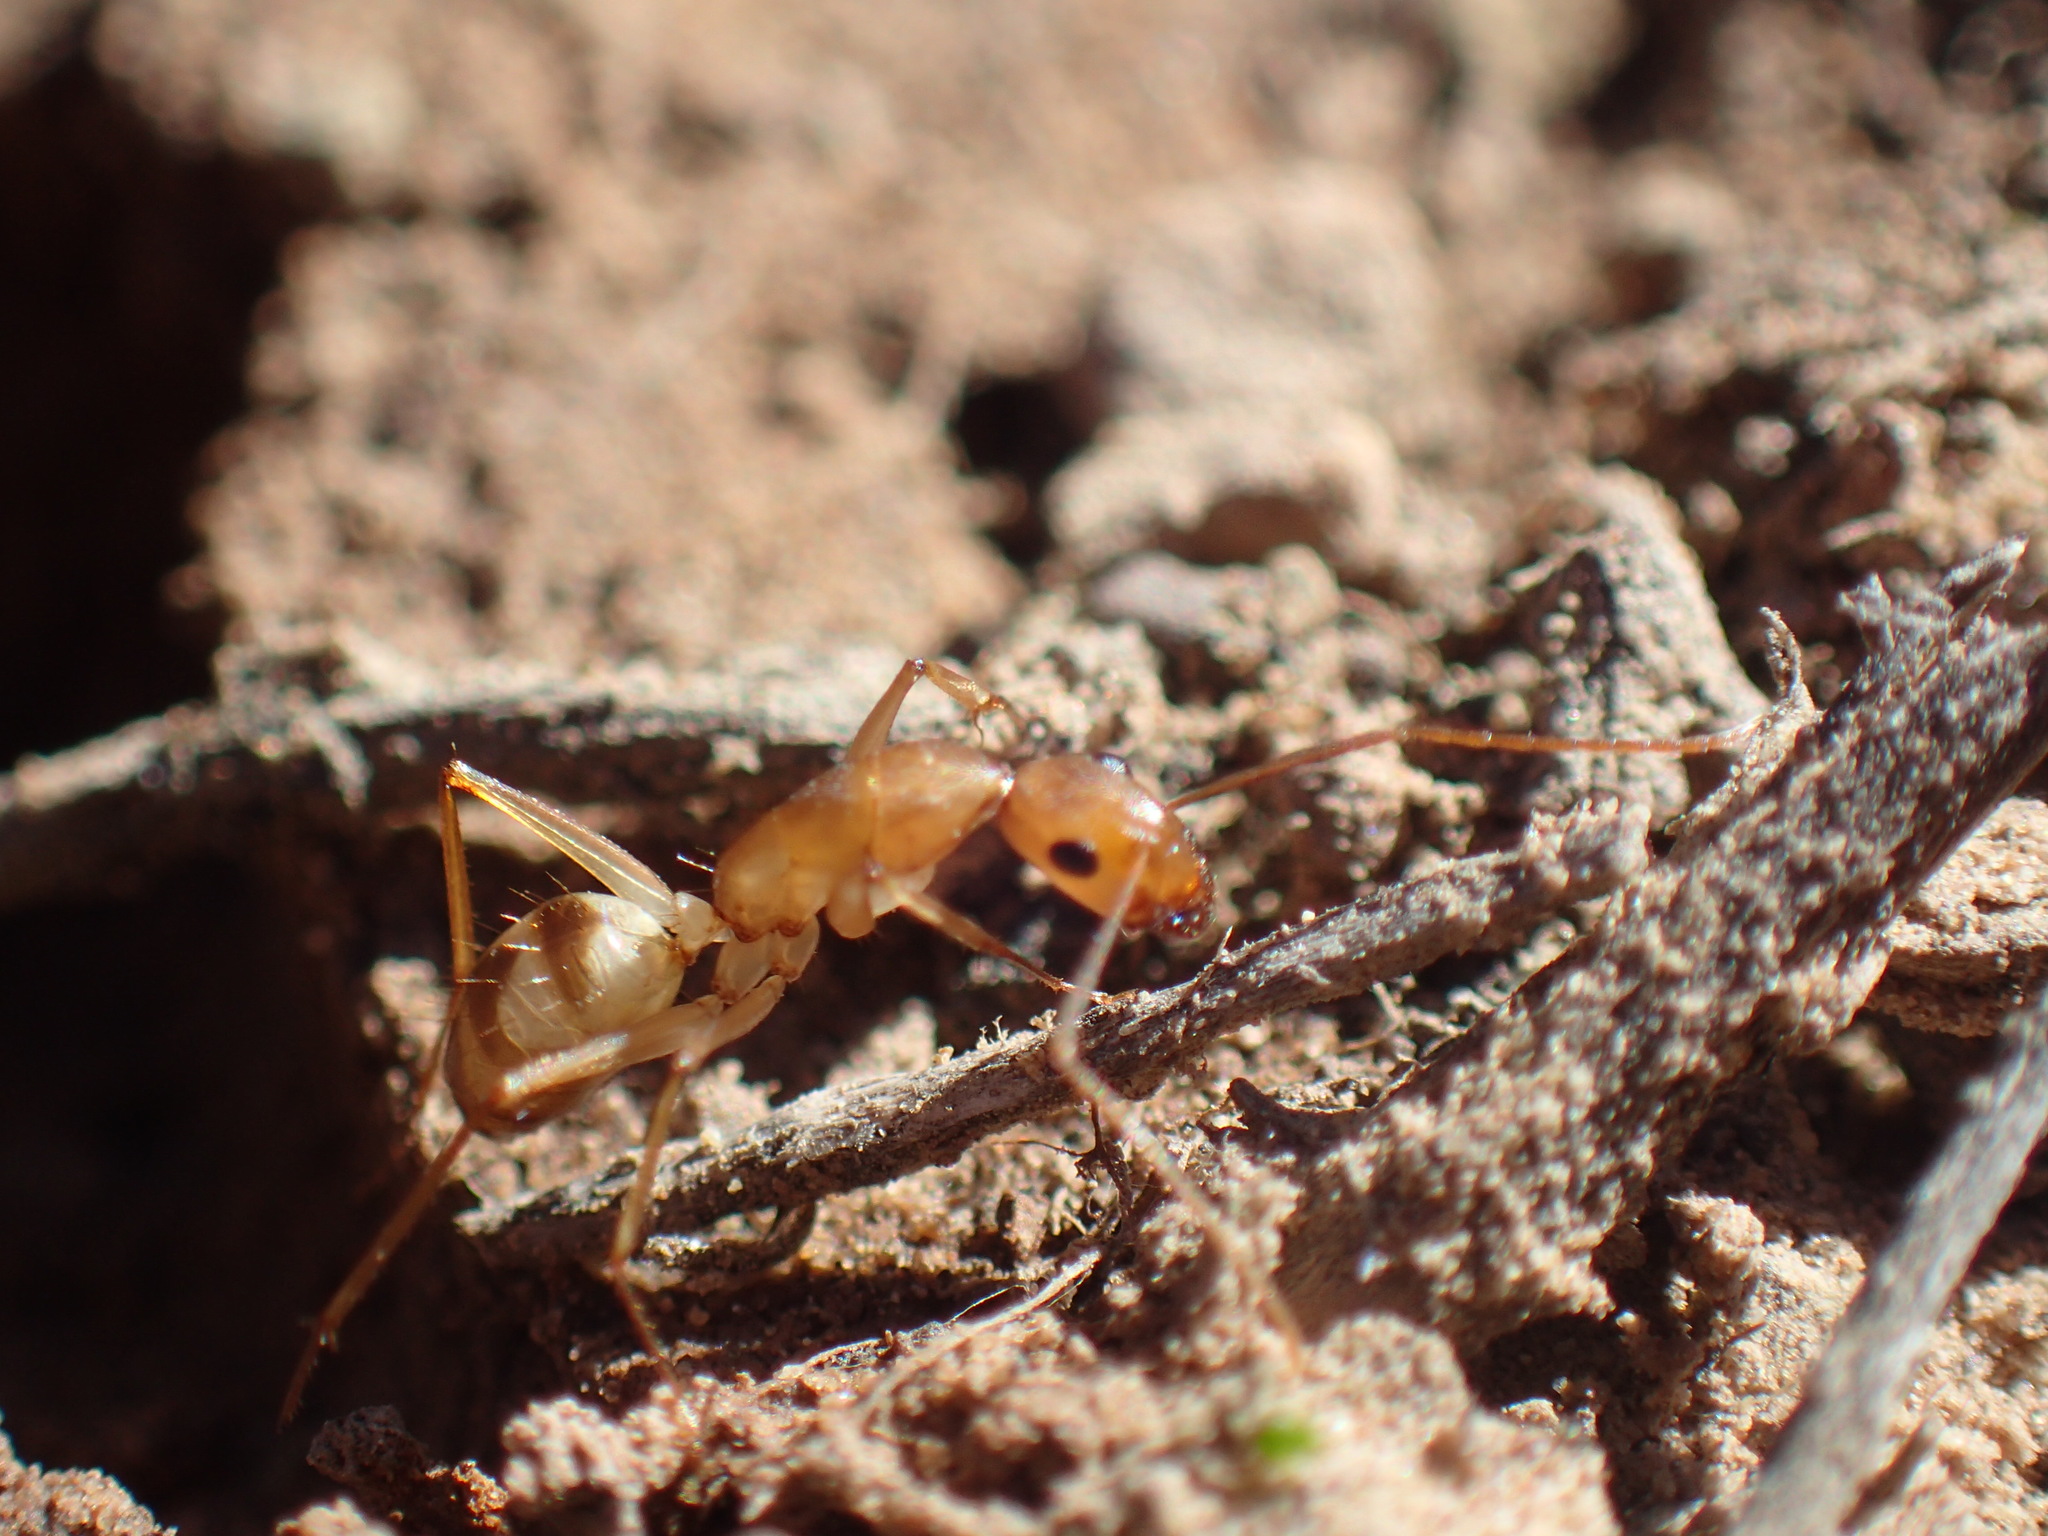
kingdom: Animalia
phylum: Arthropoda
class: Insecta
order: Hymenoptera
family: Formicidae
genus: Camponotus
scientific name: Camponotus maculatus
